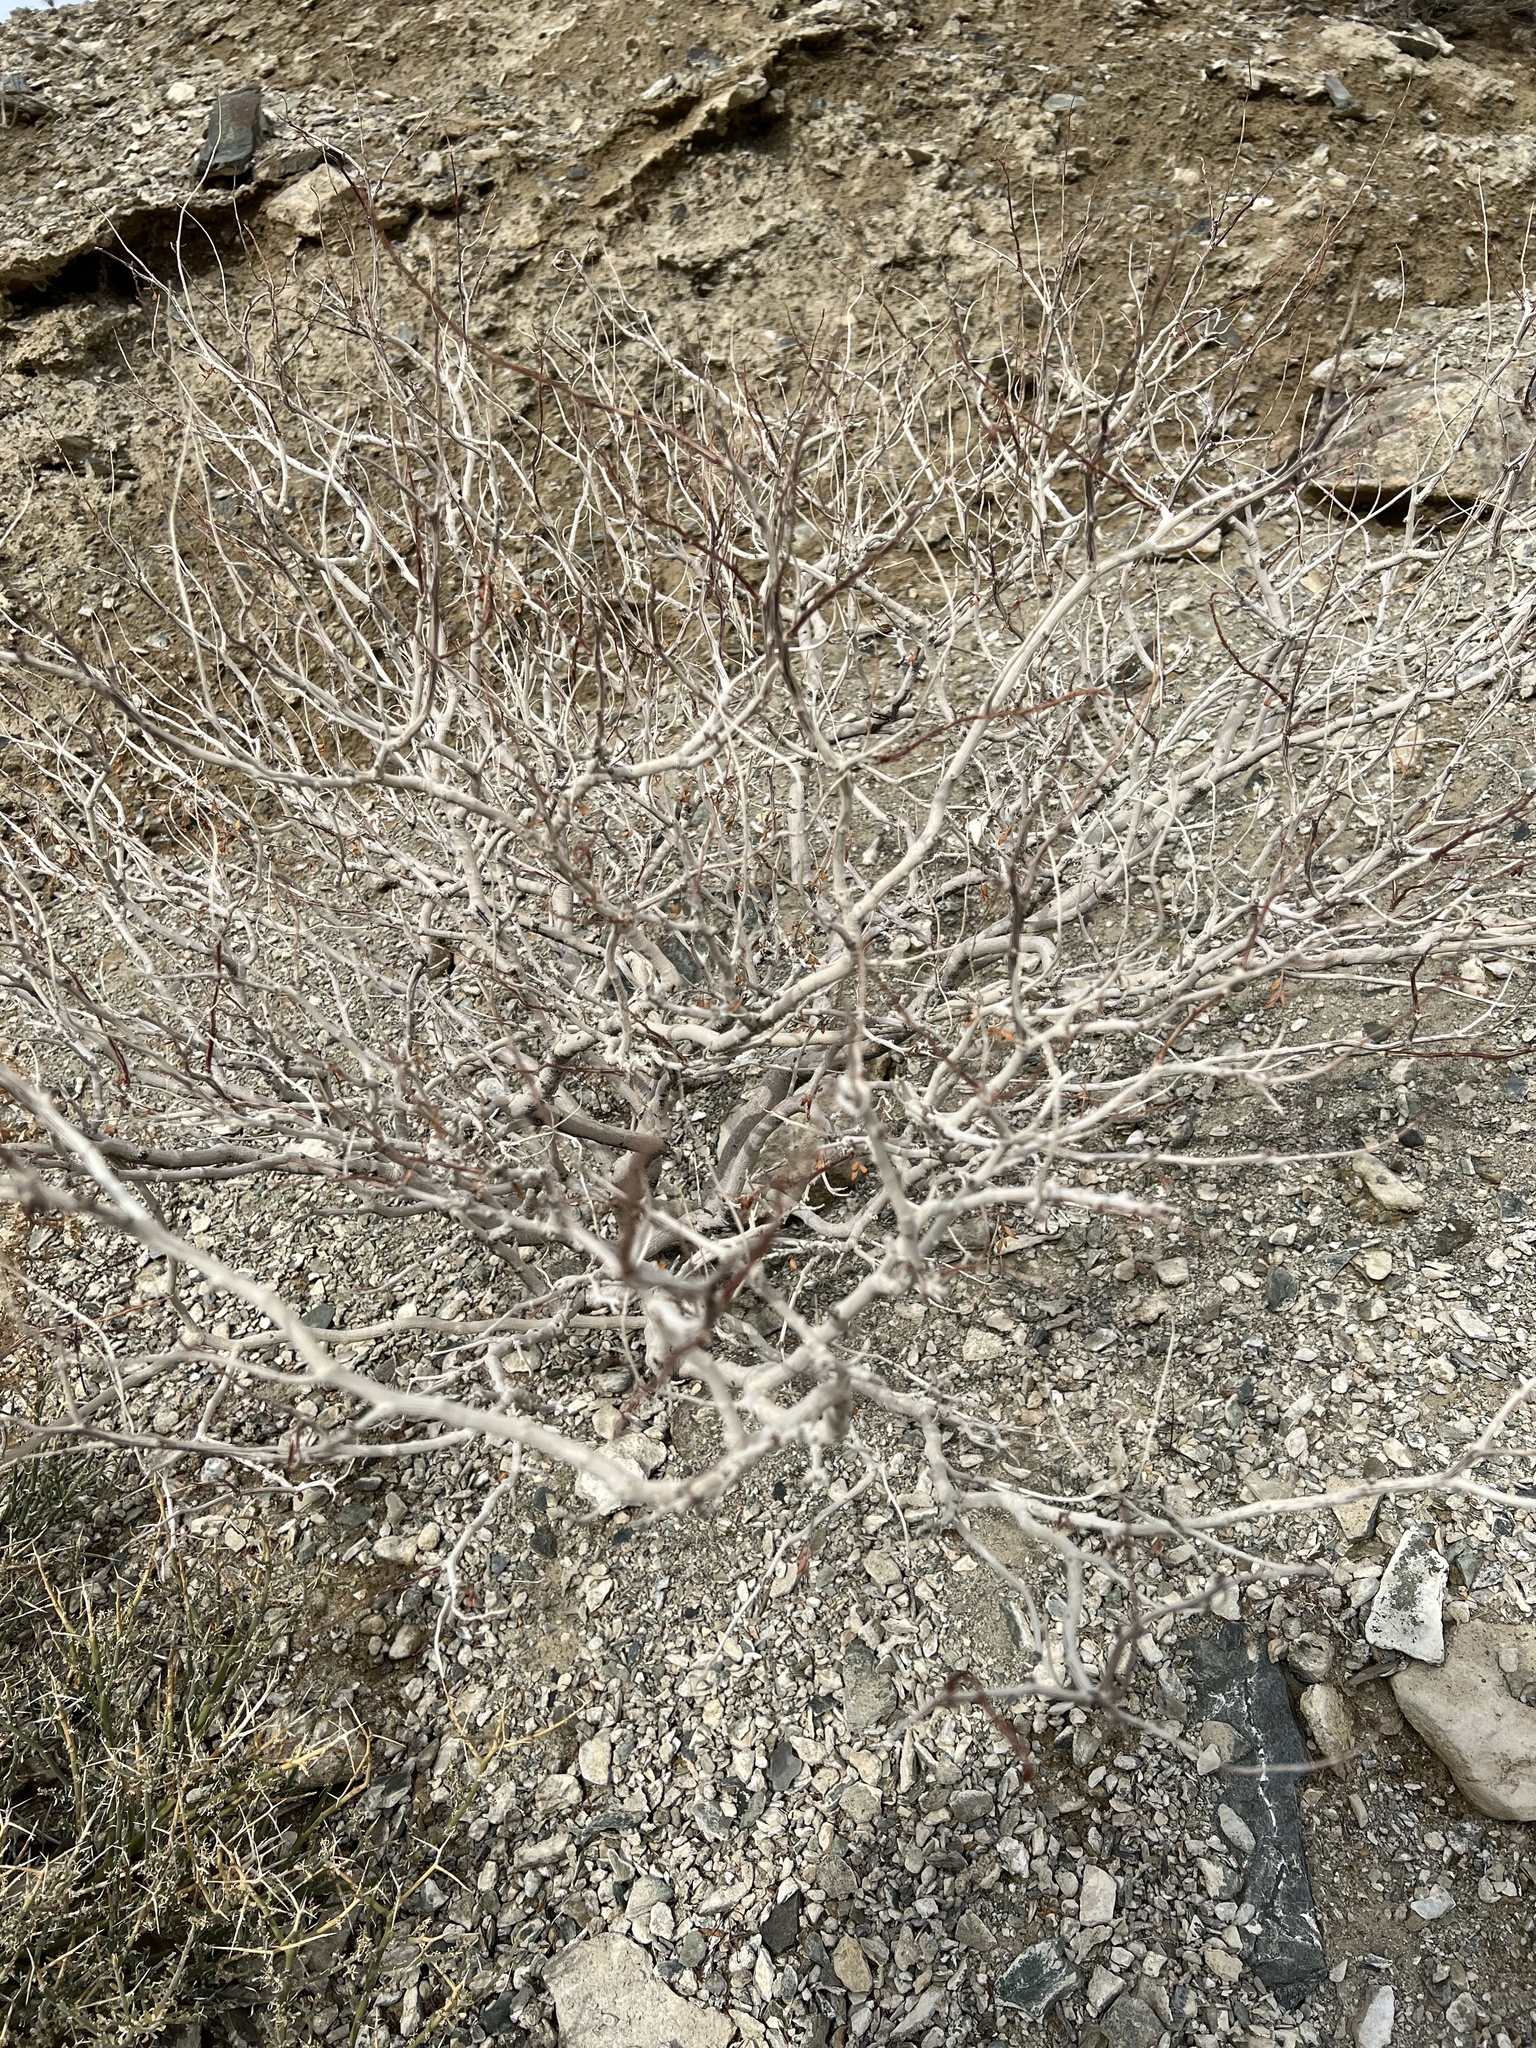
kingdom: Plantae
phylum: Tracheophyta
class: Magnoliopsida
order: Fabales
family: Fabaceae
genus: Psorothamnus
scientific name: Psorothamnus arborescens
